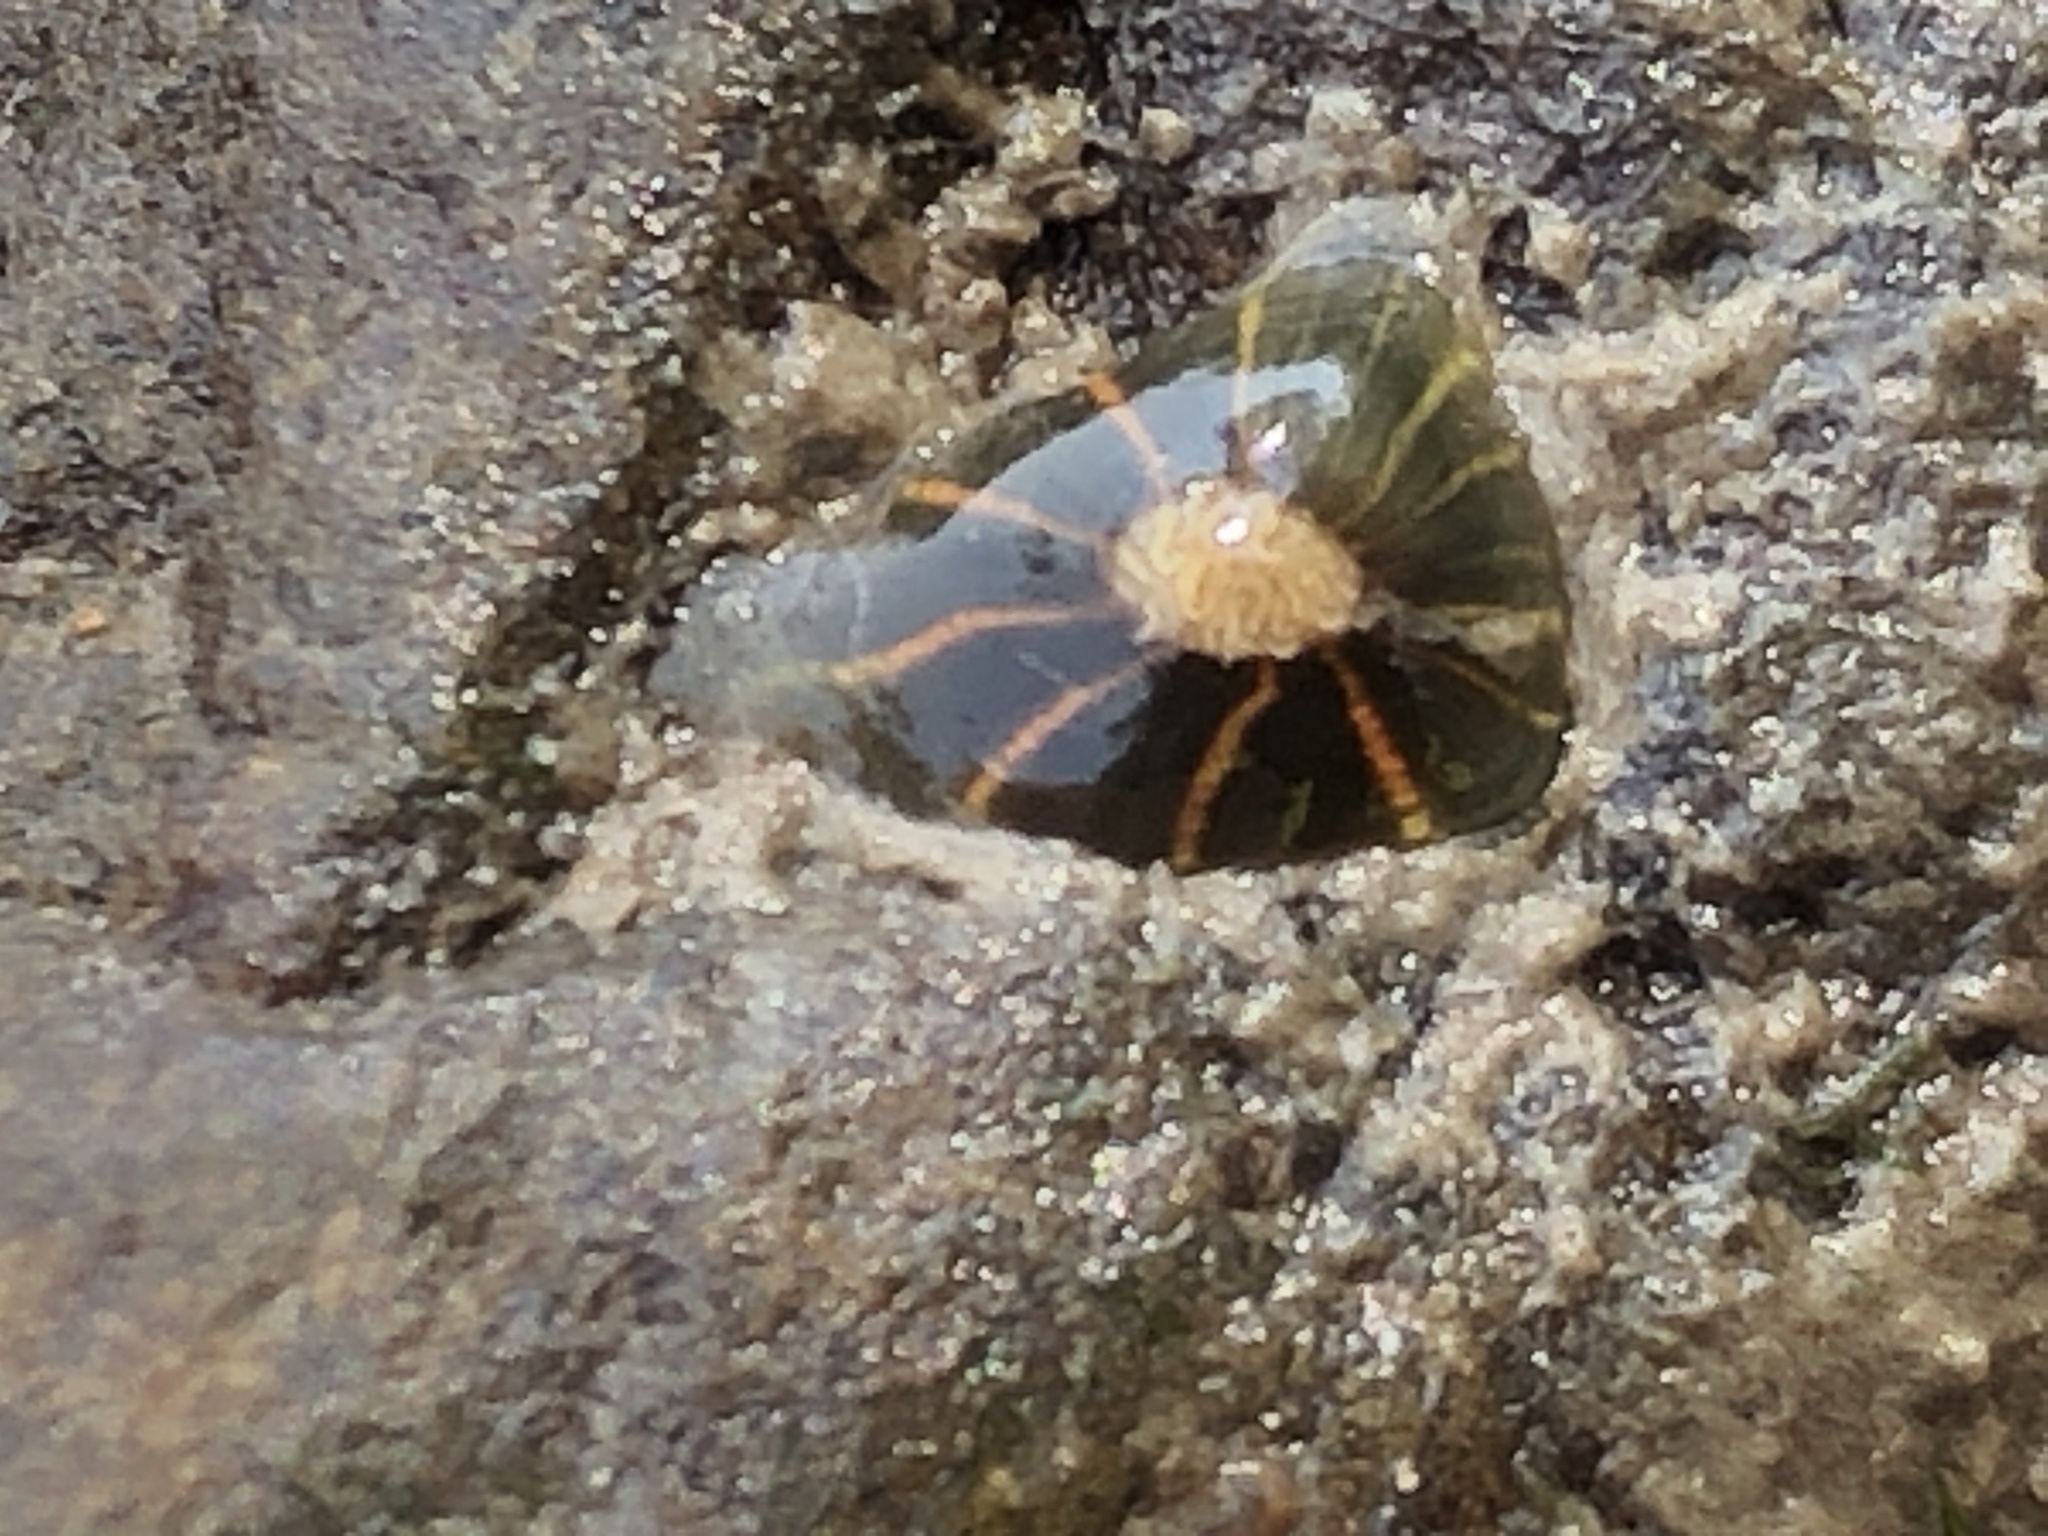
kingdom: Animalia
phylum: Cnidaria
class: Anthozoa
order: Actiniaria
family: Diadumenidae
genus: Diadumene
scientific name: Diadumene lineata
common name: Orange-striped anemone
